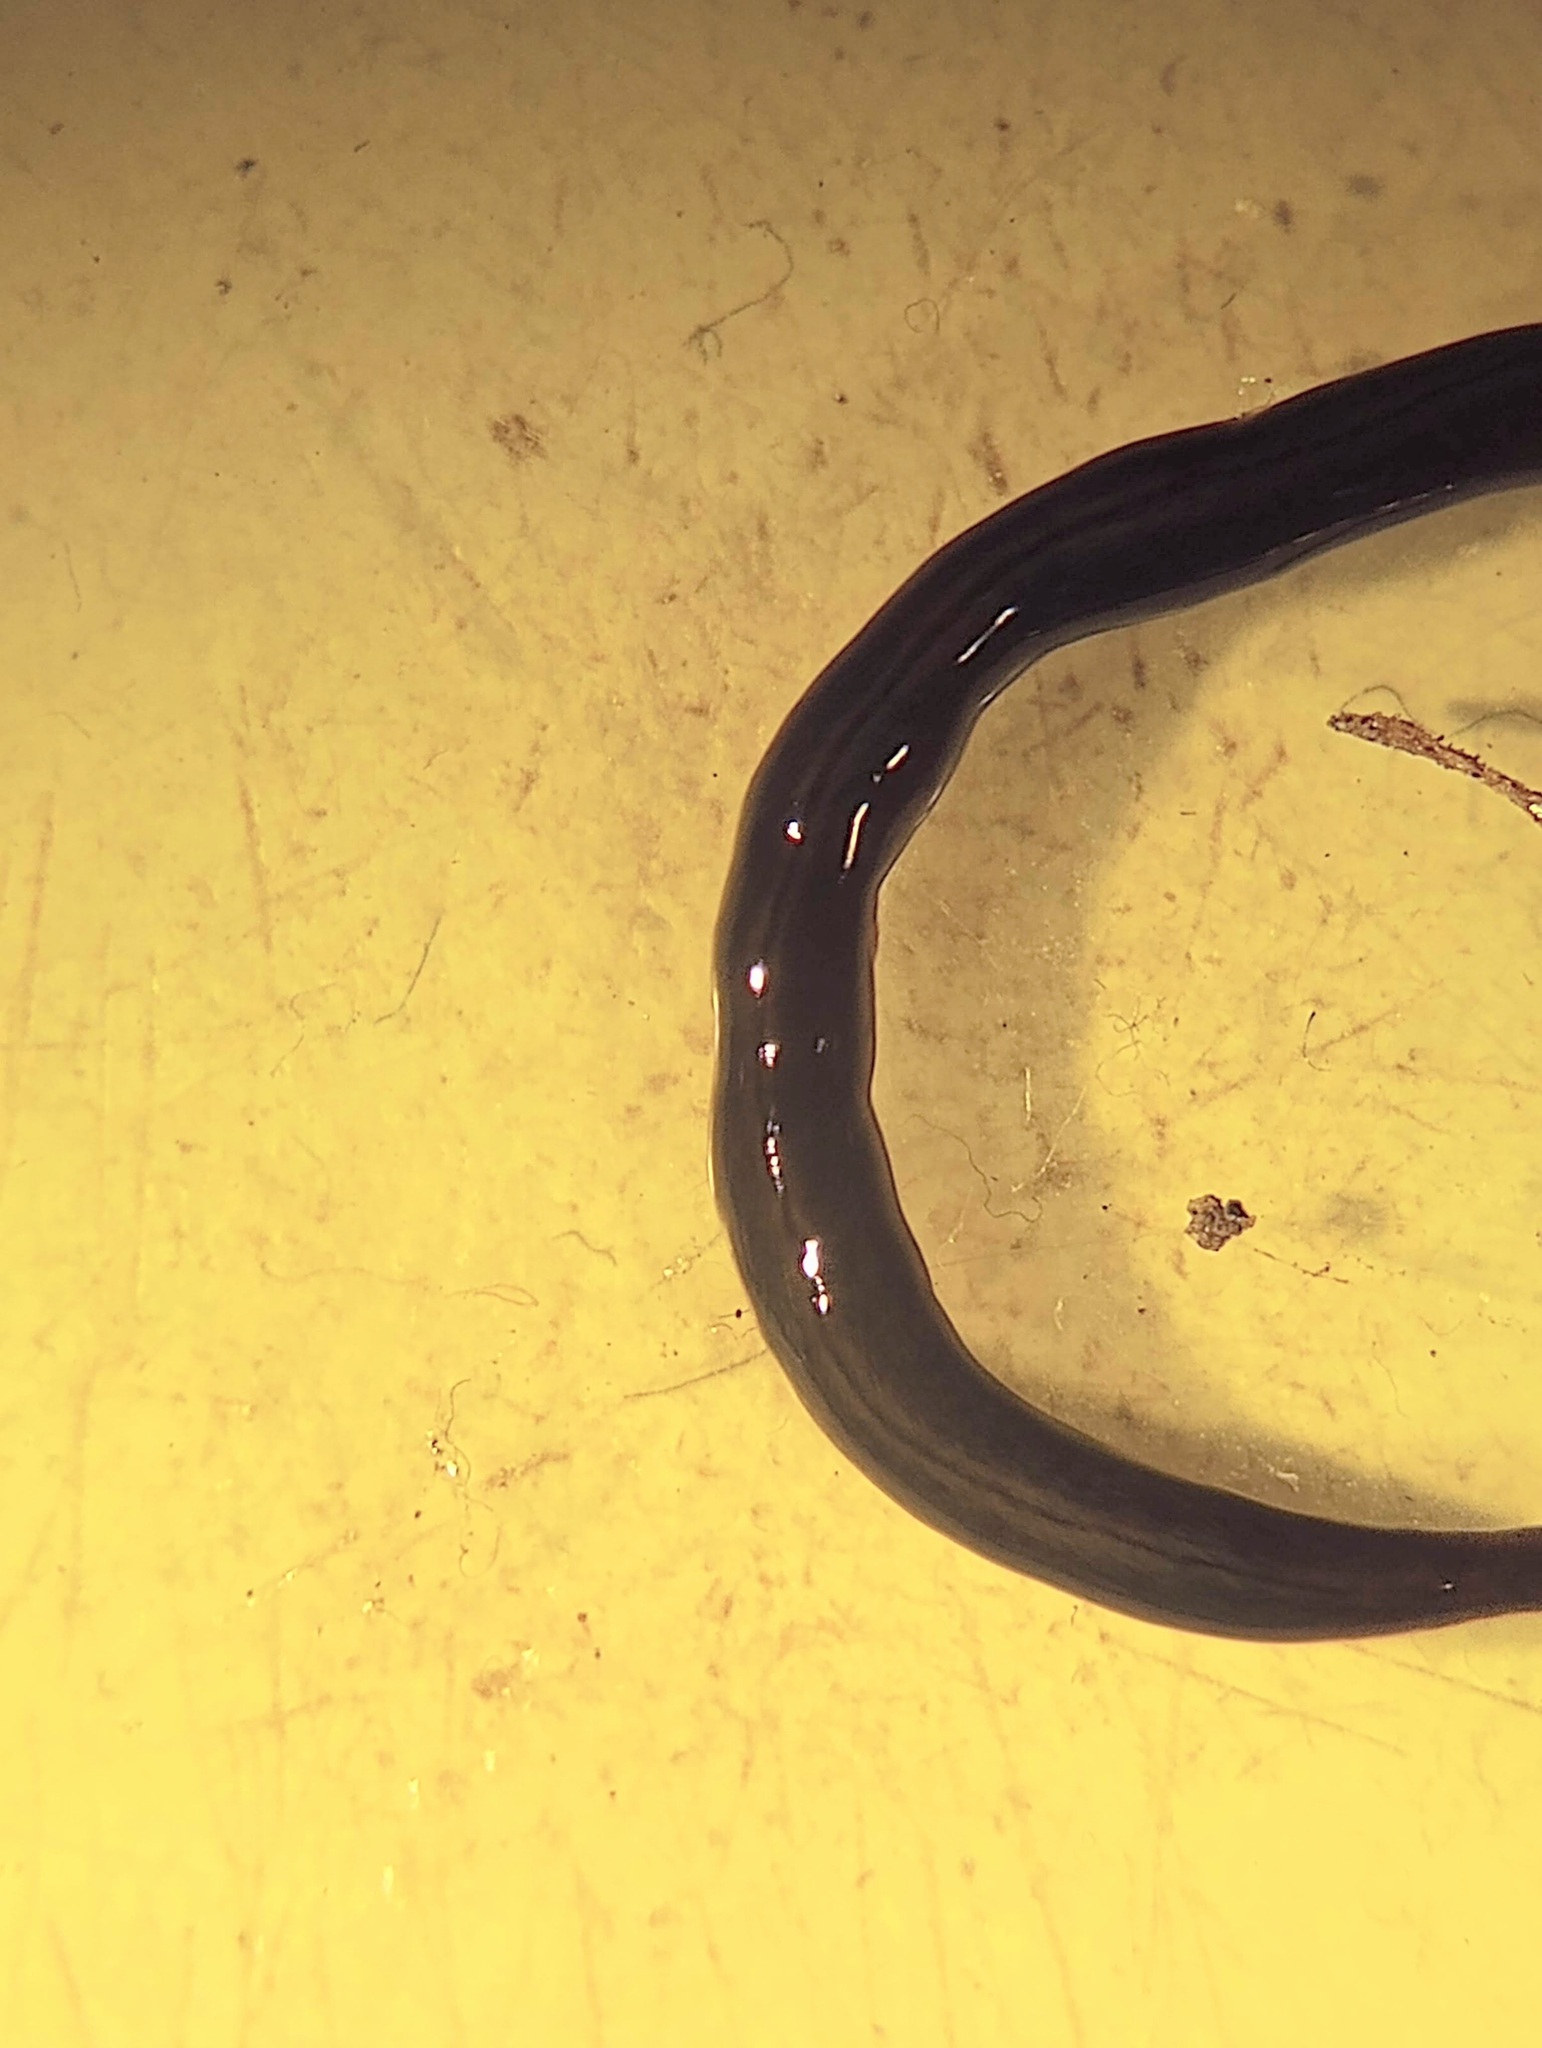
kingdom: Animalia
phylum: Platyhelminthes
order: Tricladida
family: Geoplanidae
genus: Parakontikia
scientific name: Parakontikia ventrolineata
